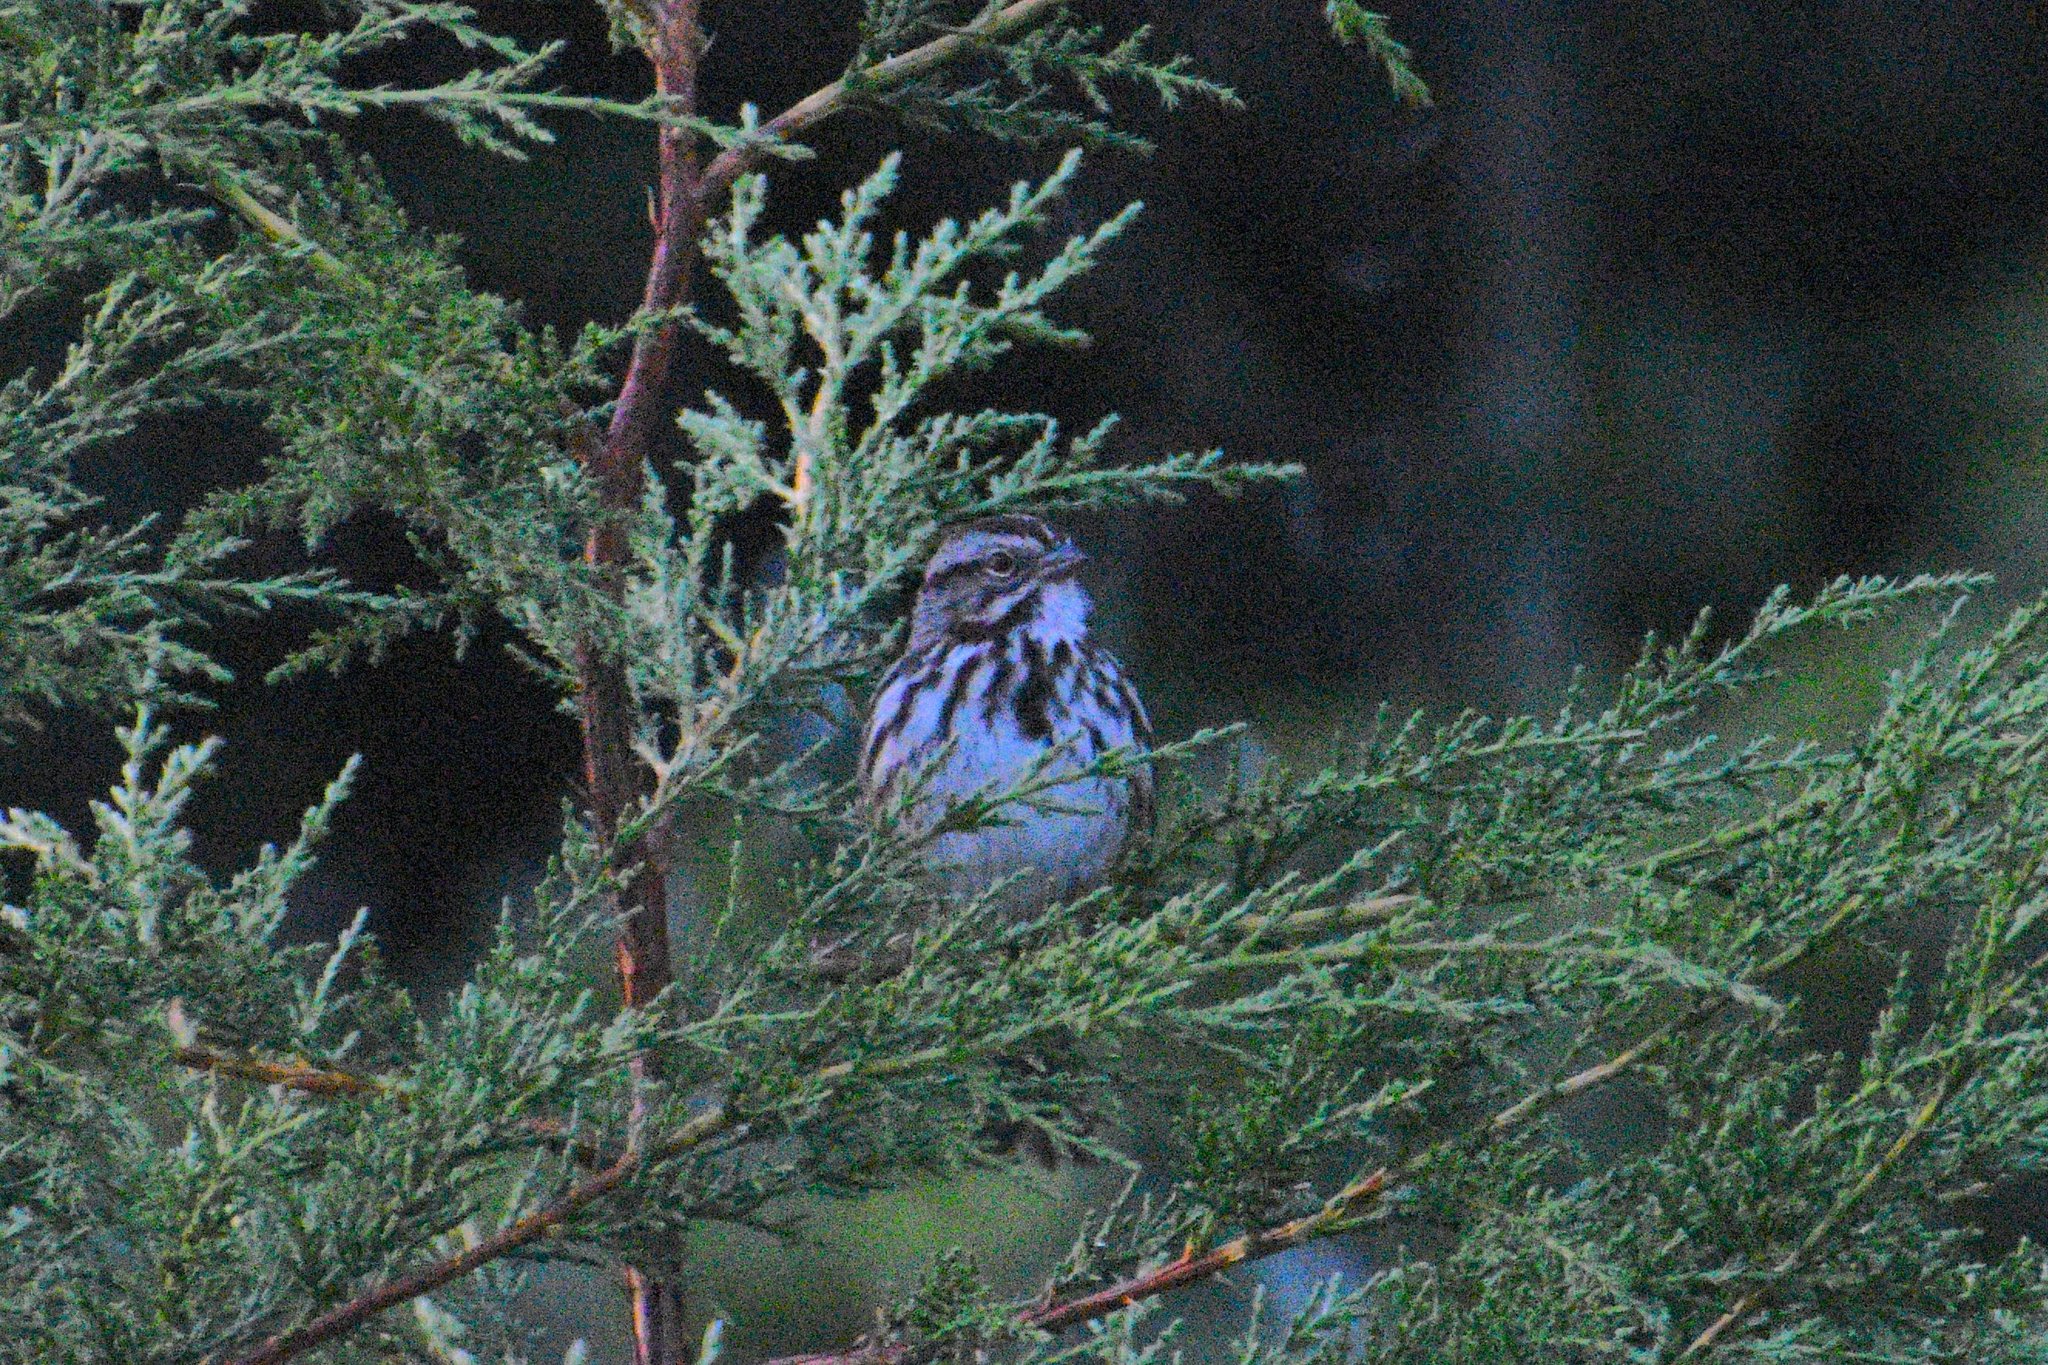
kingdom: Animalia
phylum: Chordata
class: Aves
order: Passeriformes
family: Passerellidae
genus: Melospiza
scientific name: Melospiza melodia
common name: Song sparrow
